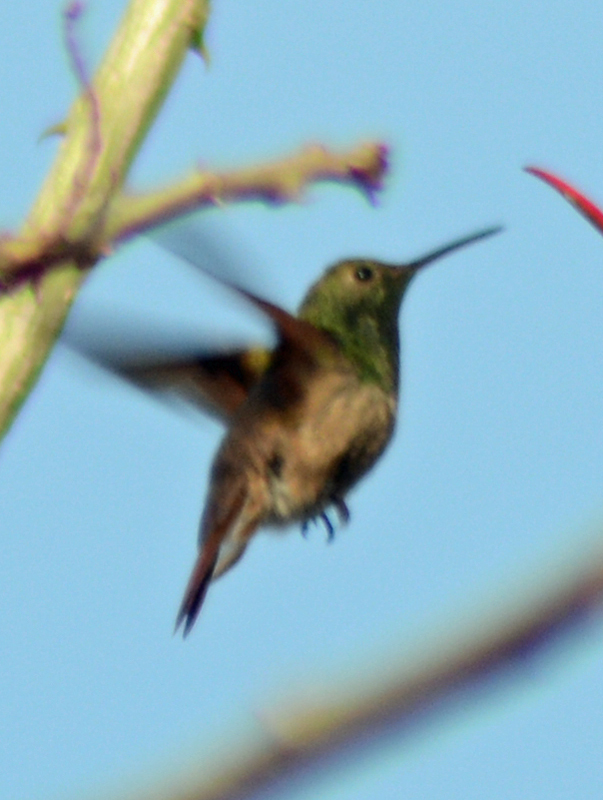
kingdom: Animalia
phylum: Chordata
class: Aves
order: Apodiformes
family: Trochilidae
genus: Saucerottia
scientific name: Saucerottia beryllina
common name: Berylline hummingbird
